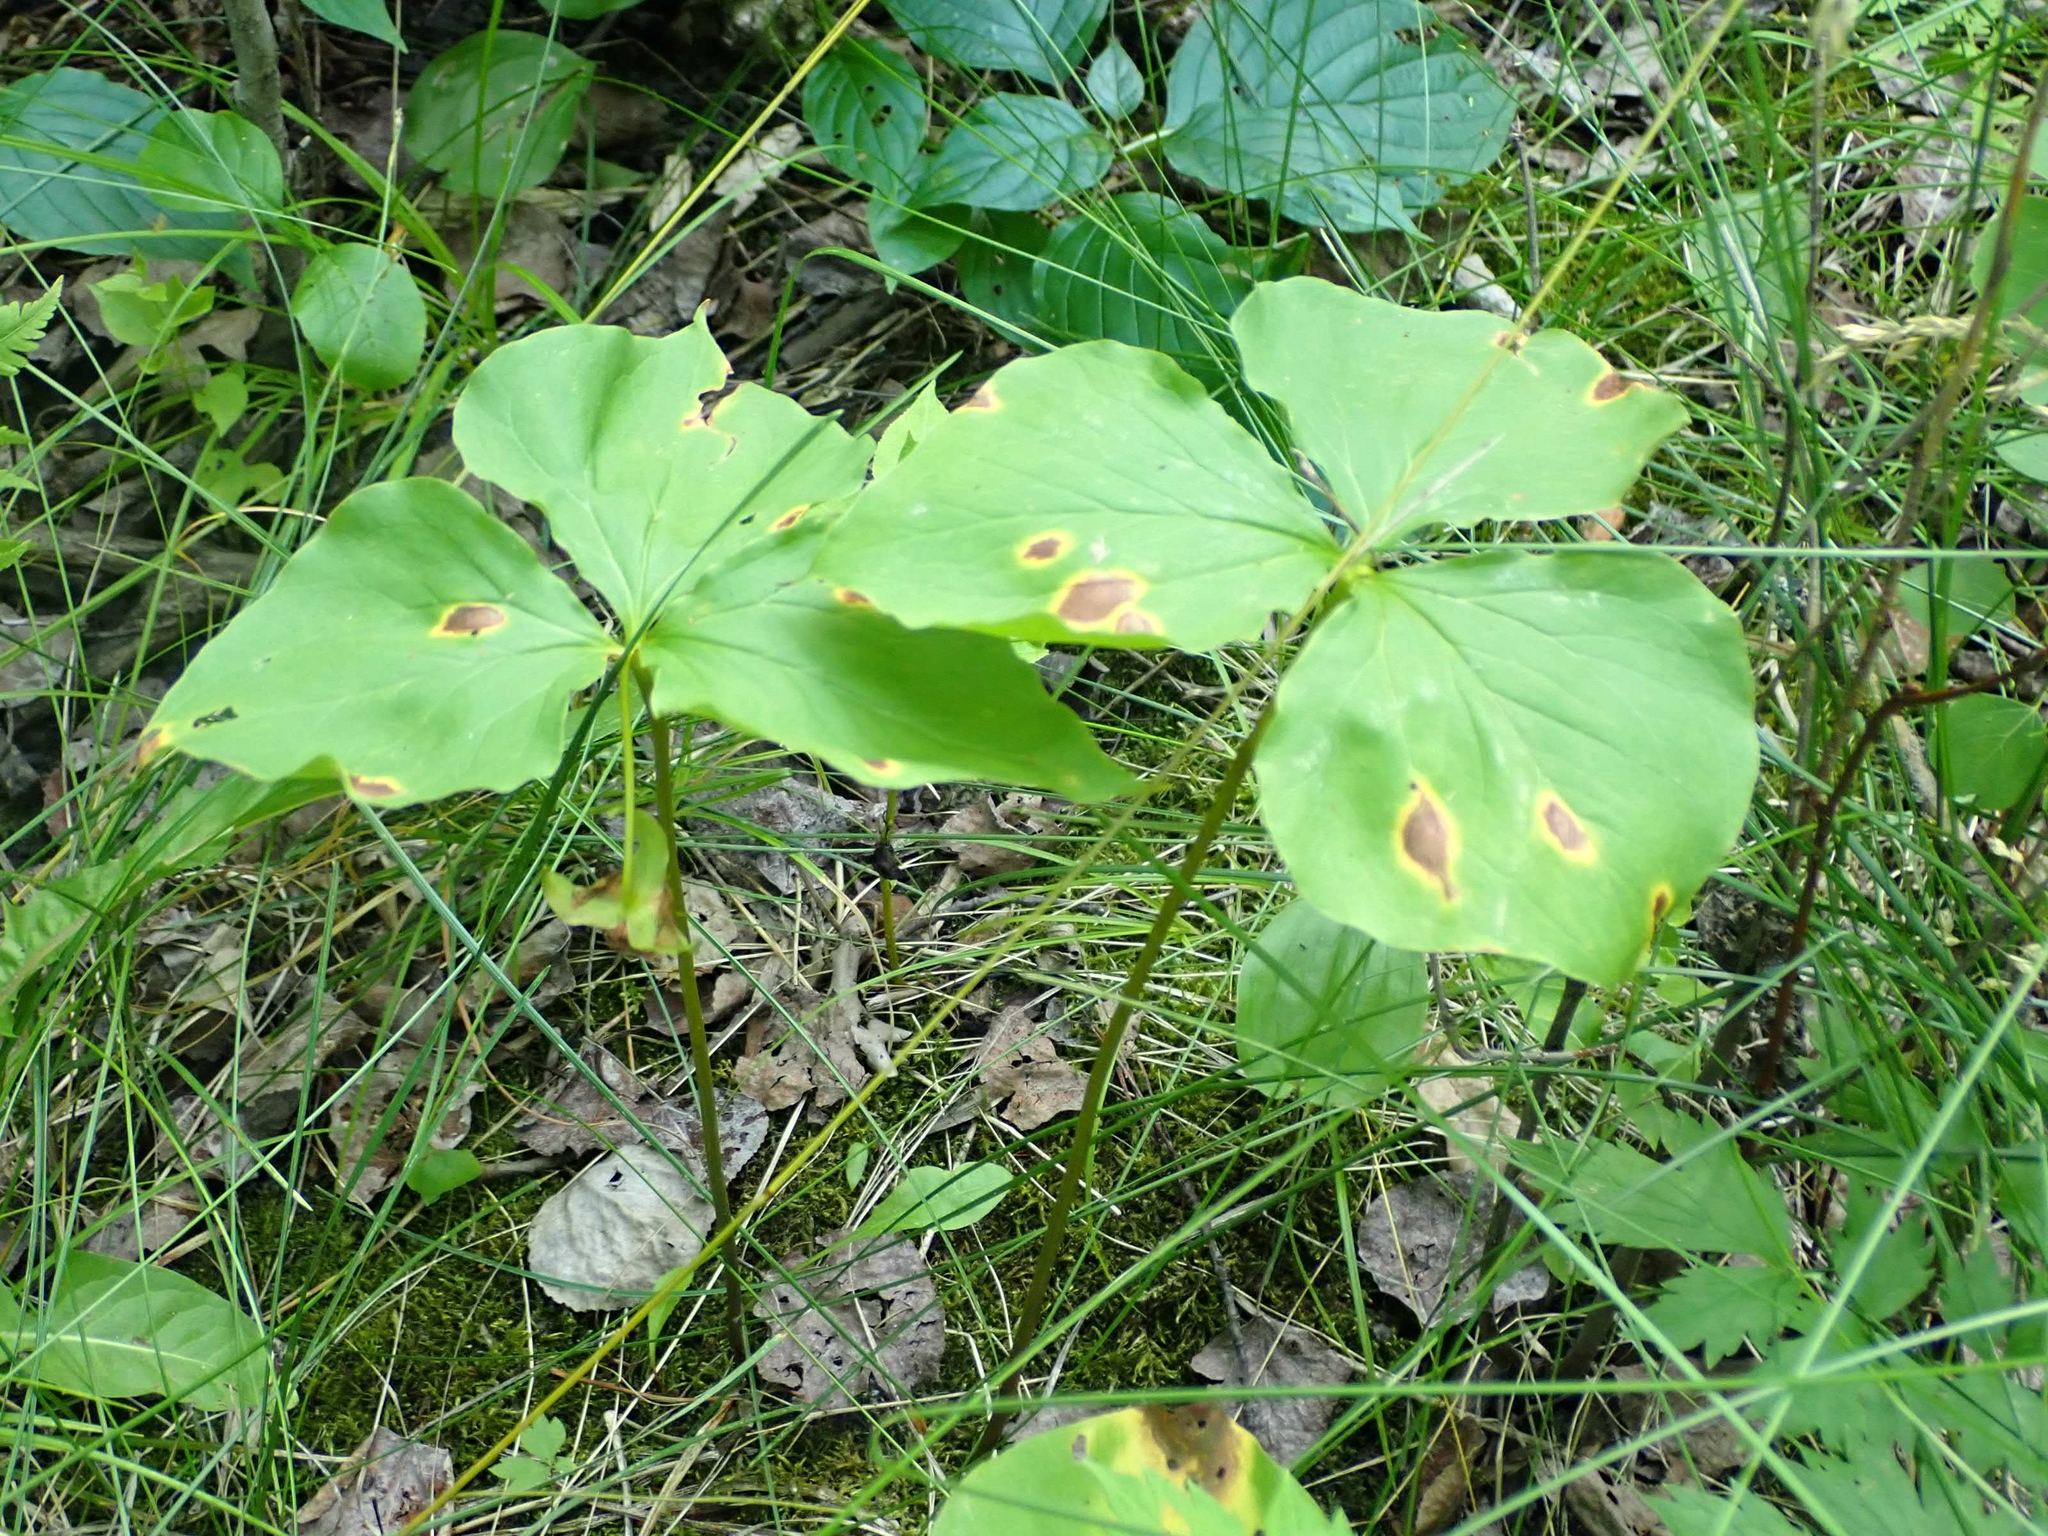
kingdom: Plantae
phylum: Tracheophyta
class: Liliopsida
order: Liliales
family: Melanthiaceae
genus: Trillium
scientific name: Trillium cernuum
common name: Nodding trillium
